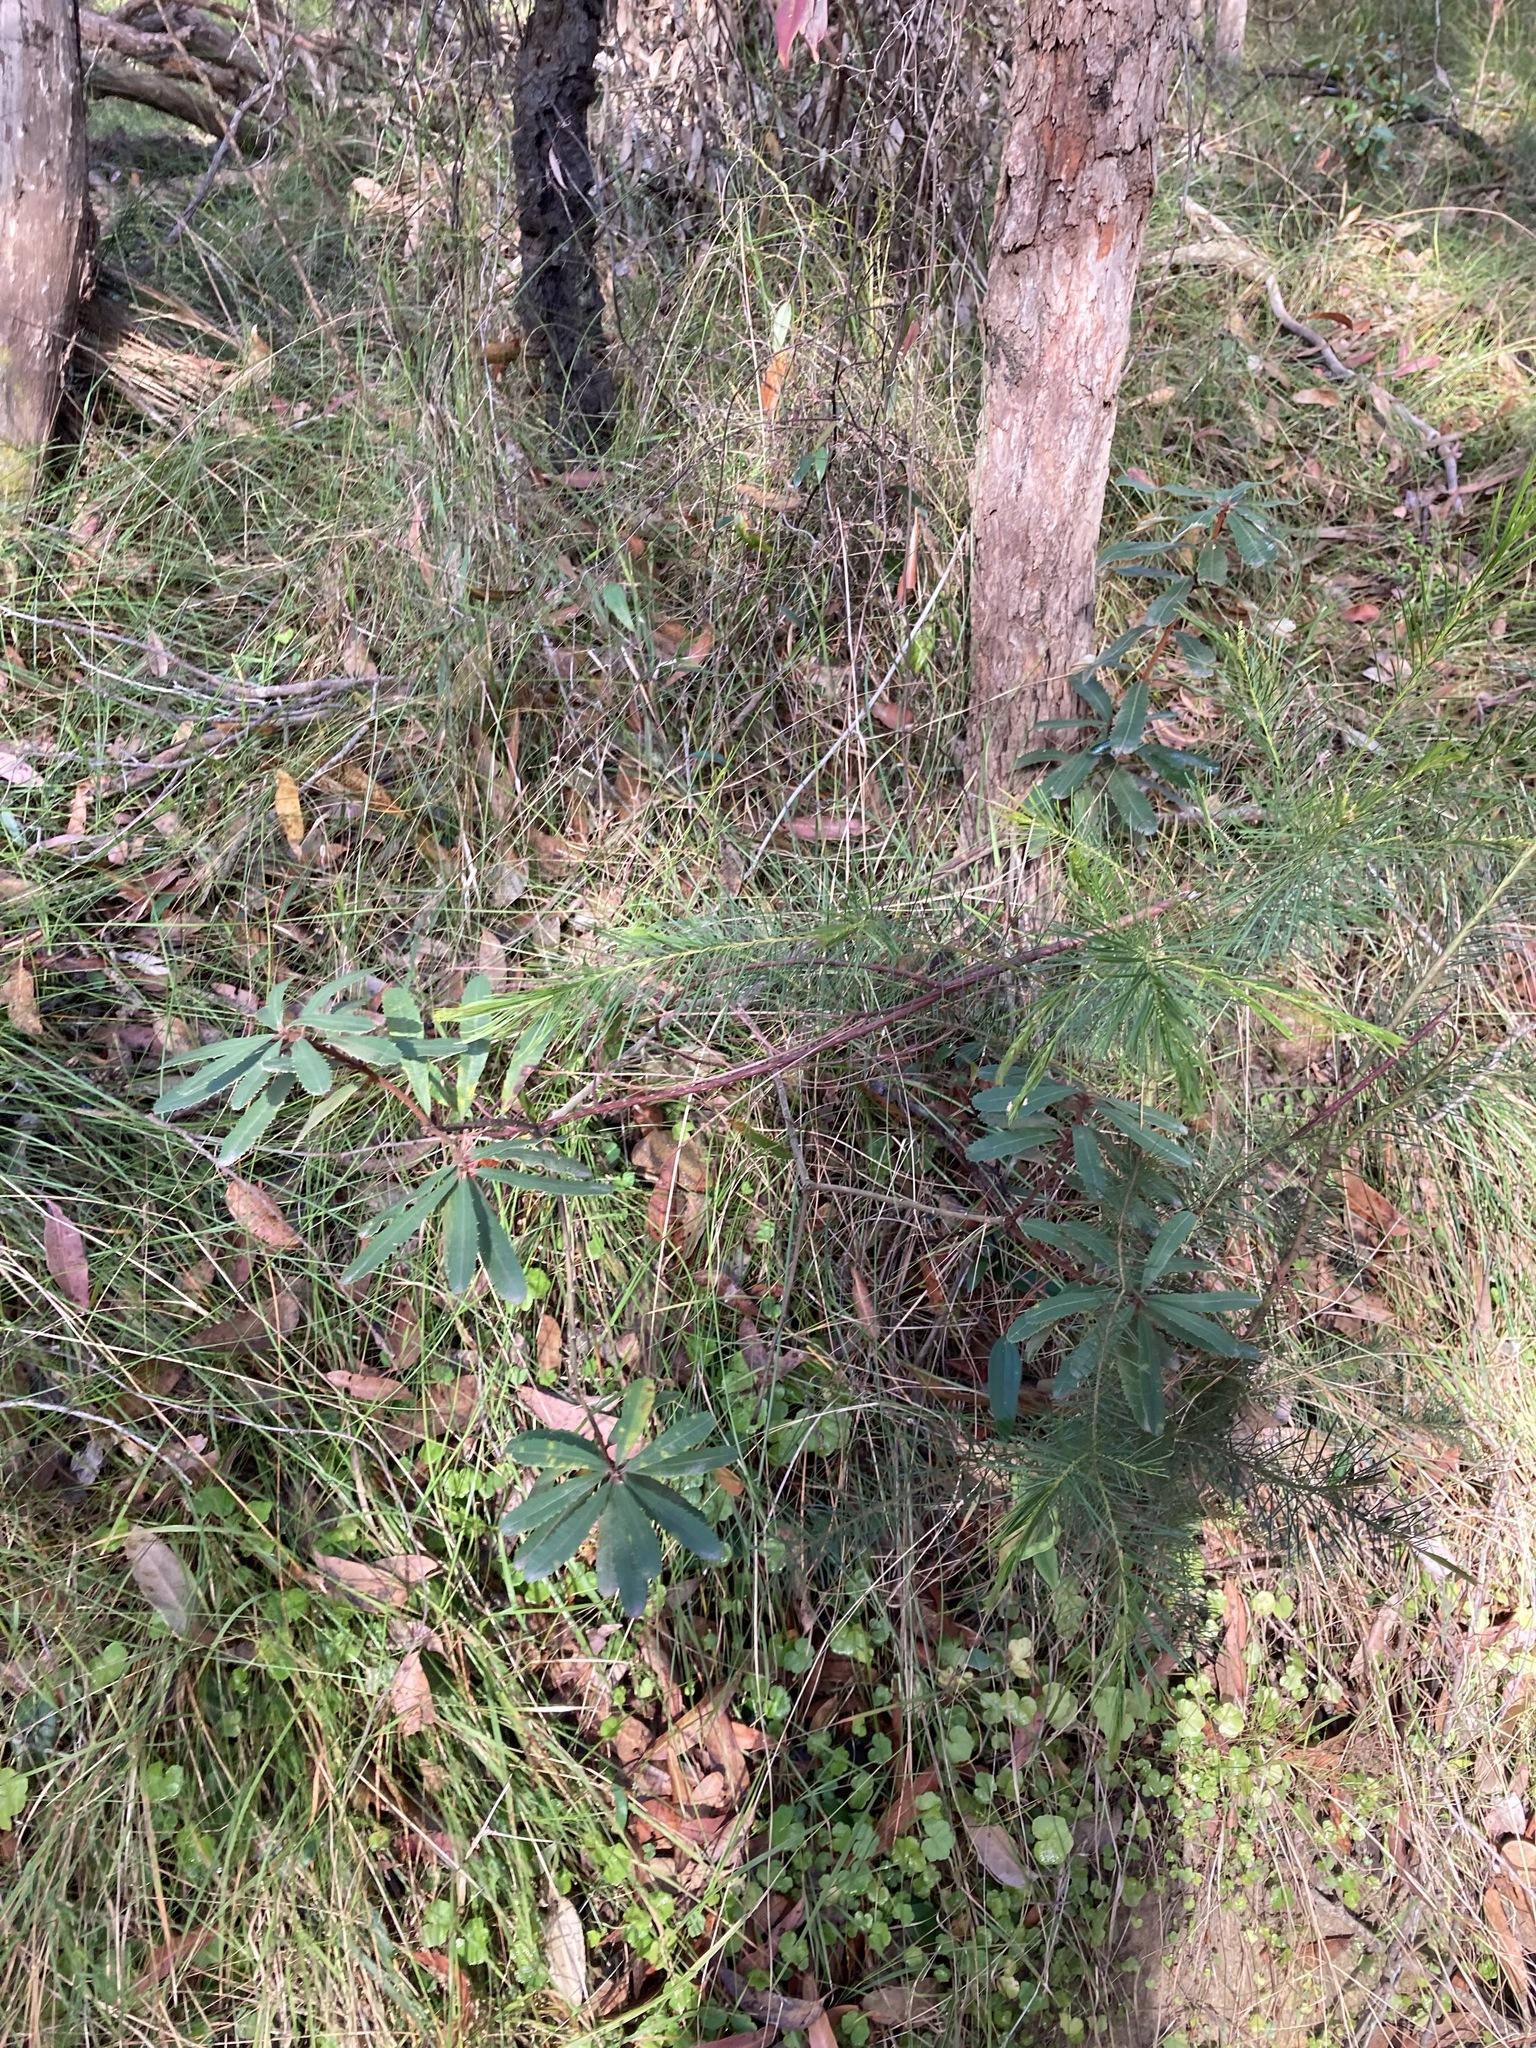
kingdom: Plantae
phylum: Tracheophyta
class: Magnoliopsida
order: Proteales
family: Proteaceae
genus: Banksia
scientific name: Banksia oblongifolia
